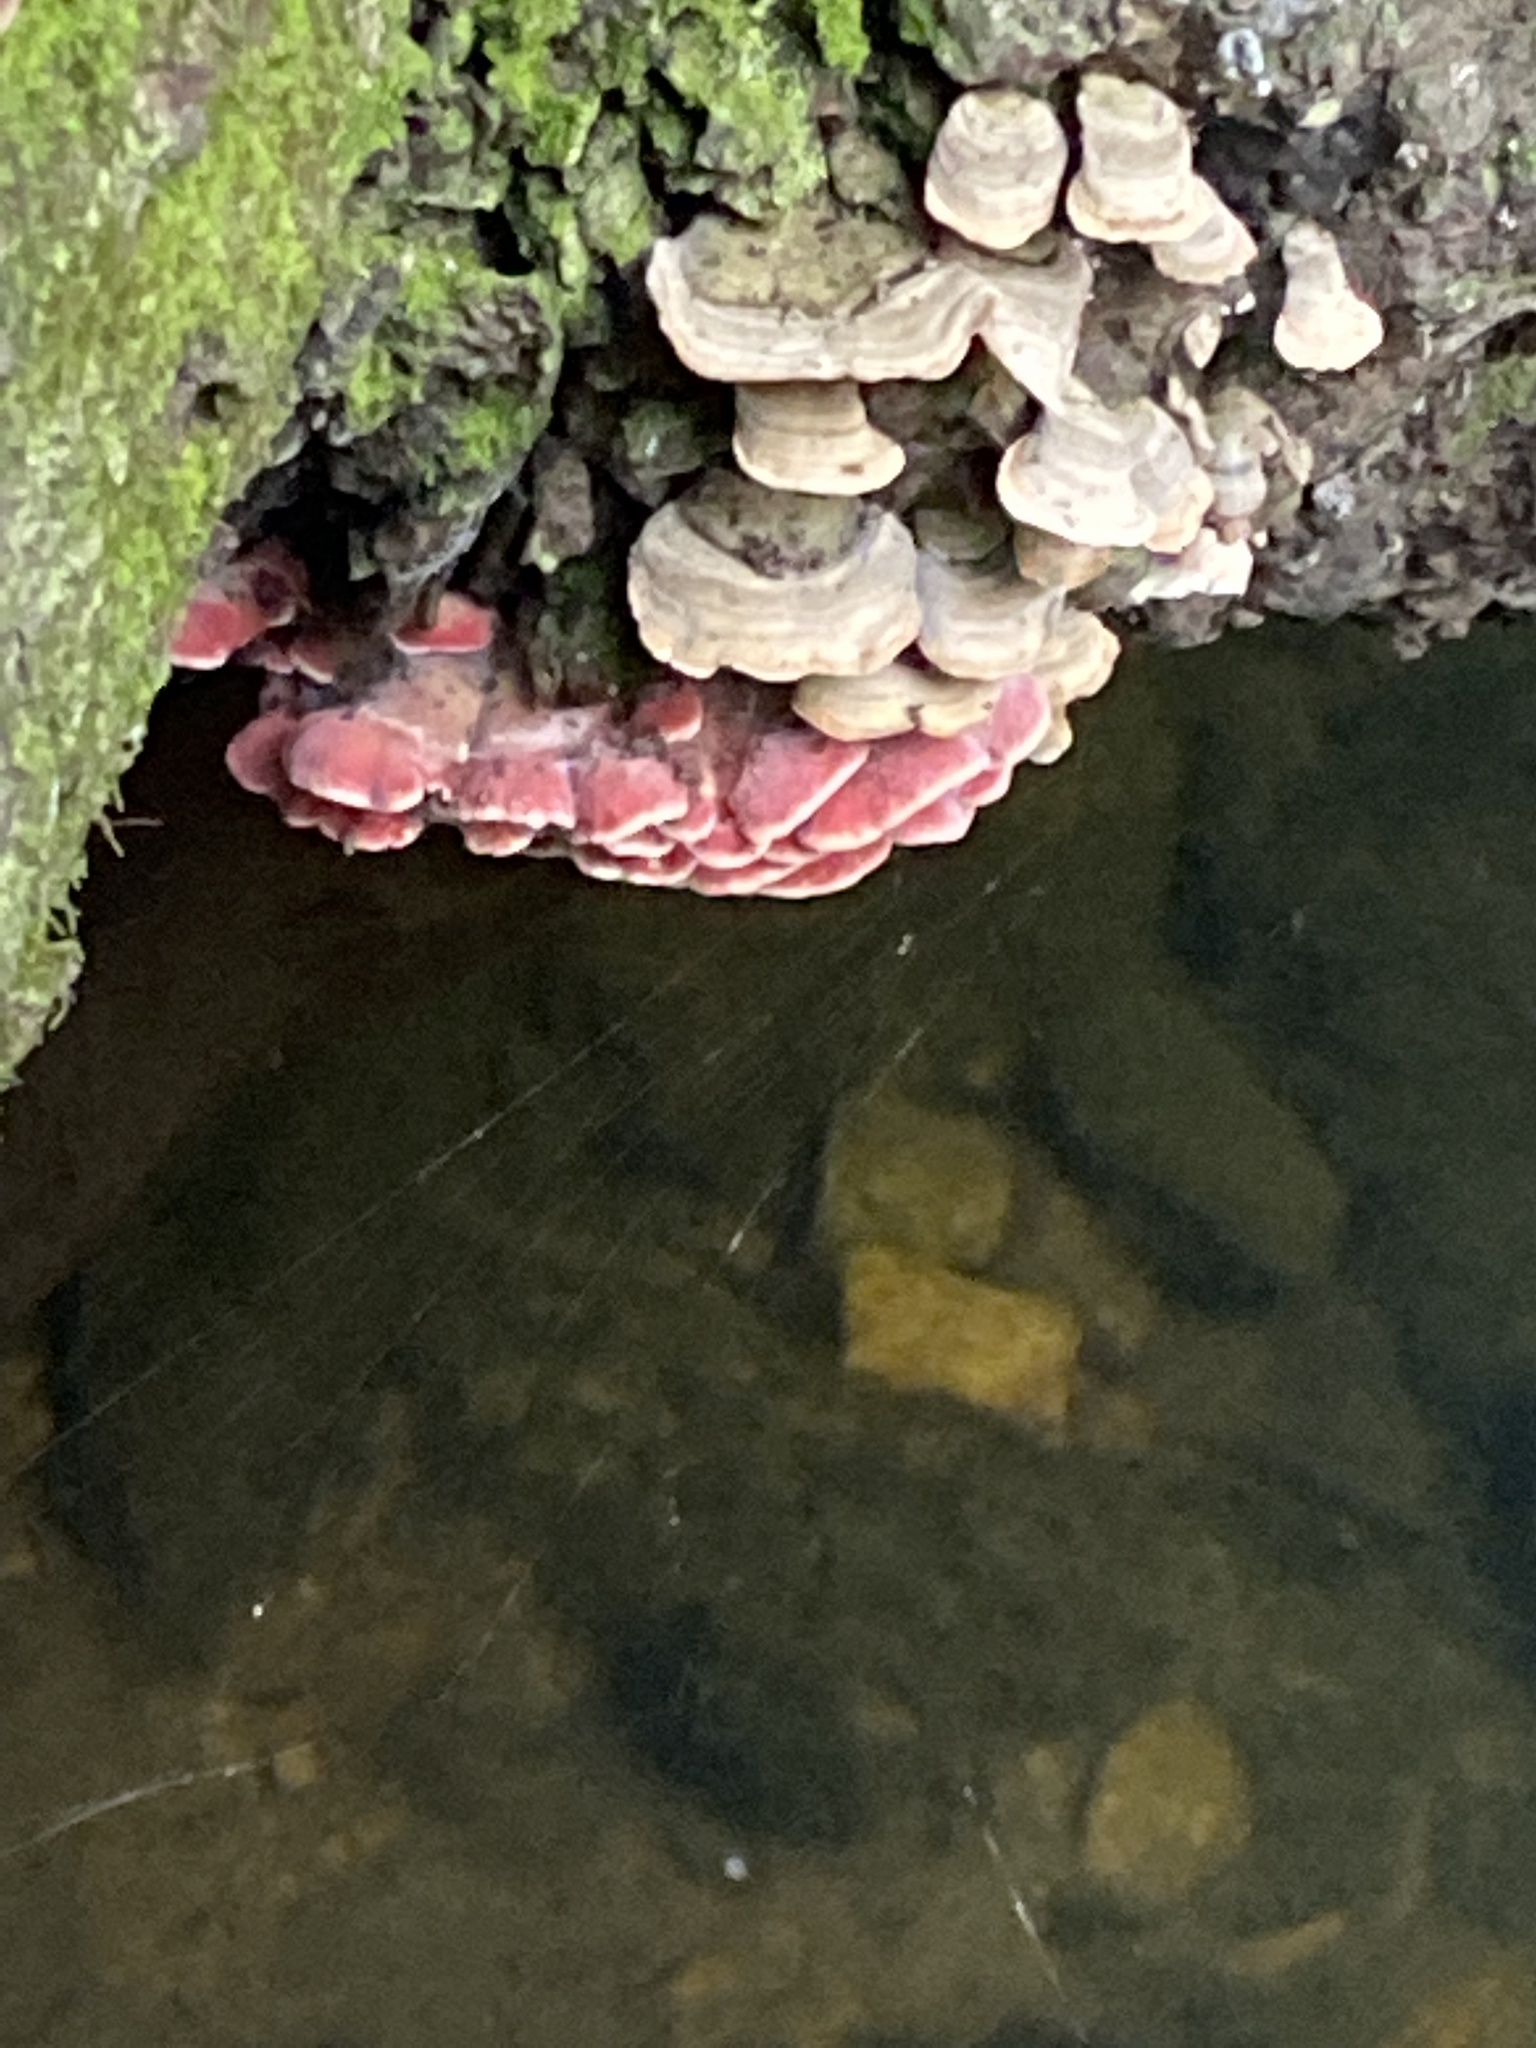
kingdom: Fungi
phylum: Basidiomycota
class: Agaricomycetes
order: Polyporales
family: Irpicaceae
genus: Byssomerulius
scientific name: Byssomerulius incarnatus
